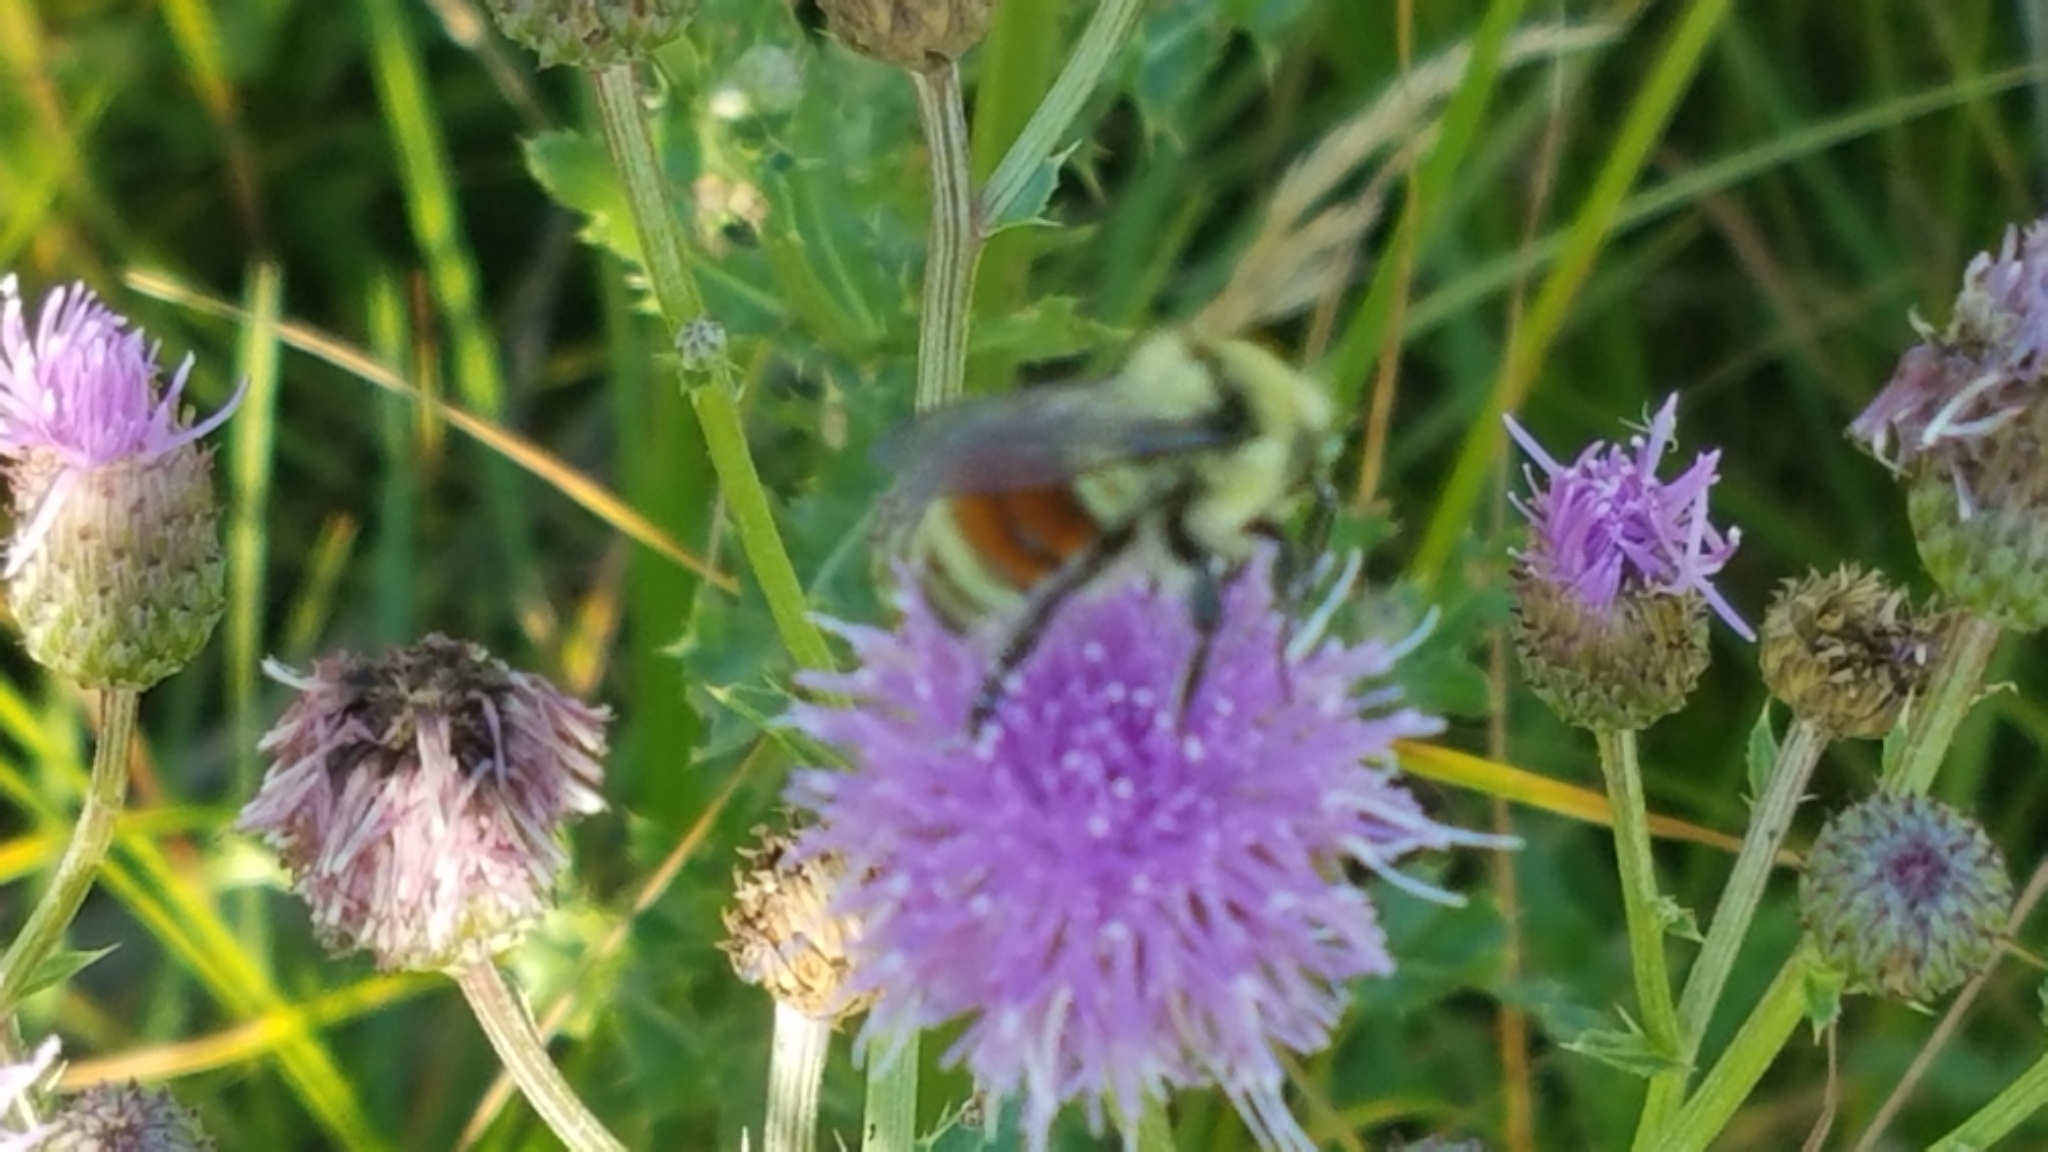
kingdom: Animalia
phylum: Arthropoda
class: Insecta
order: Hymenoptera
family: Apidae
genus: Bombus
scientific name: Bombus huntii
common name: Hunt bumble bee
